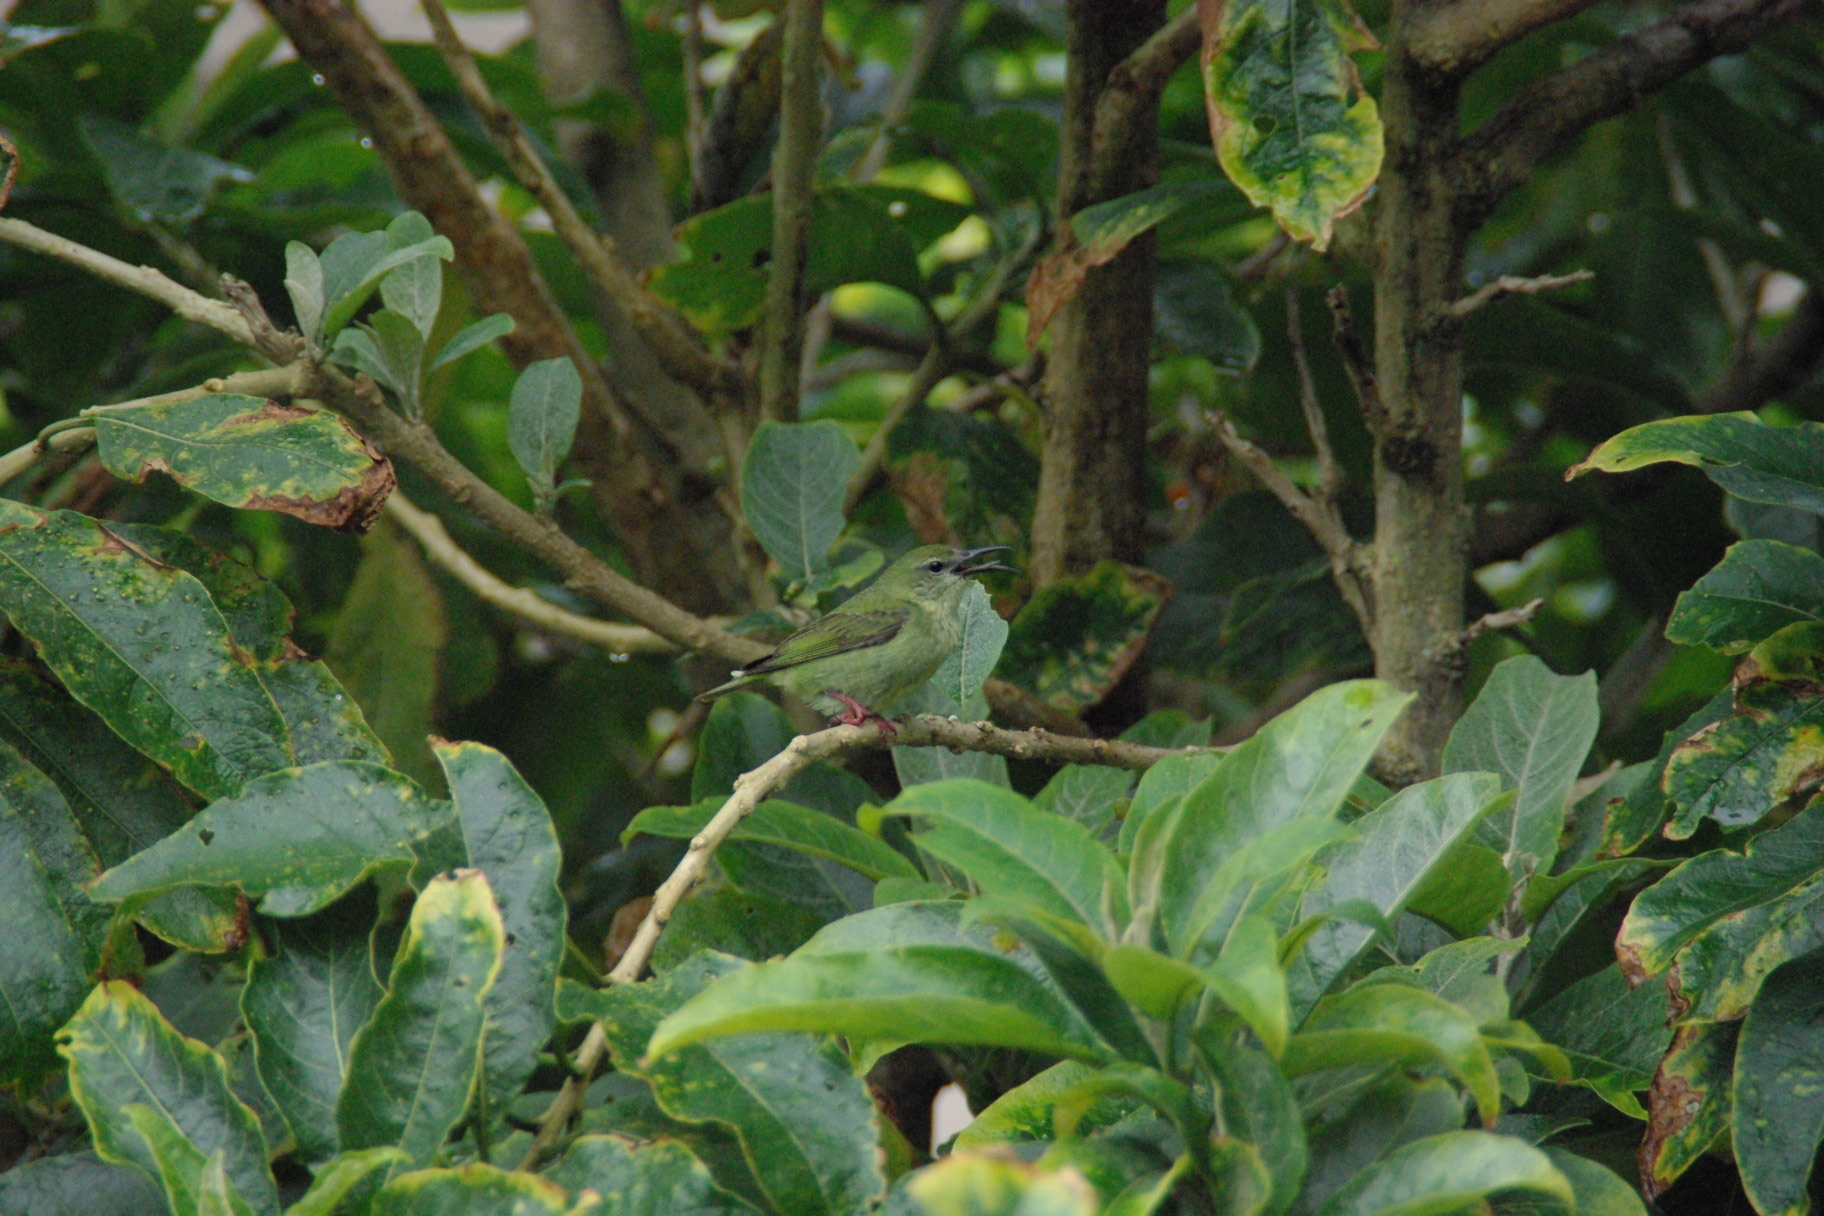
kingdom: Animalia
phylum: Chordata
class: Aves
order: Passeriformes
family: Thraupidae
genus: Cyanerpes
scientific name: Cyanerpes cyaneus
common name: Red-legged honeycreeper
